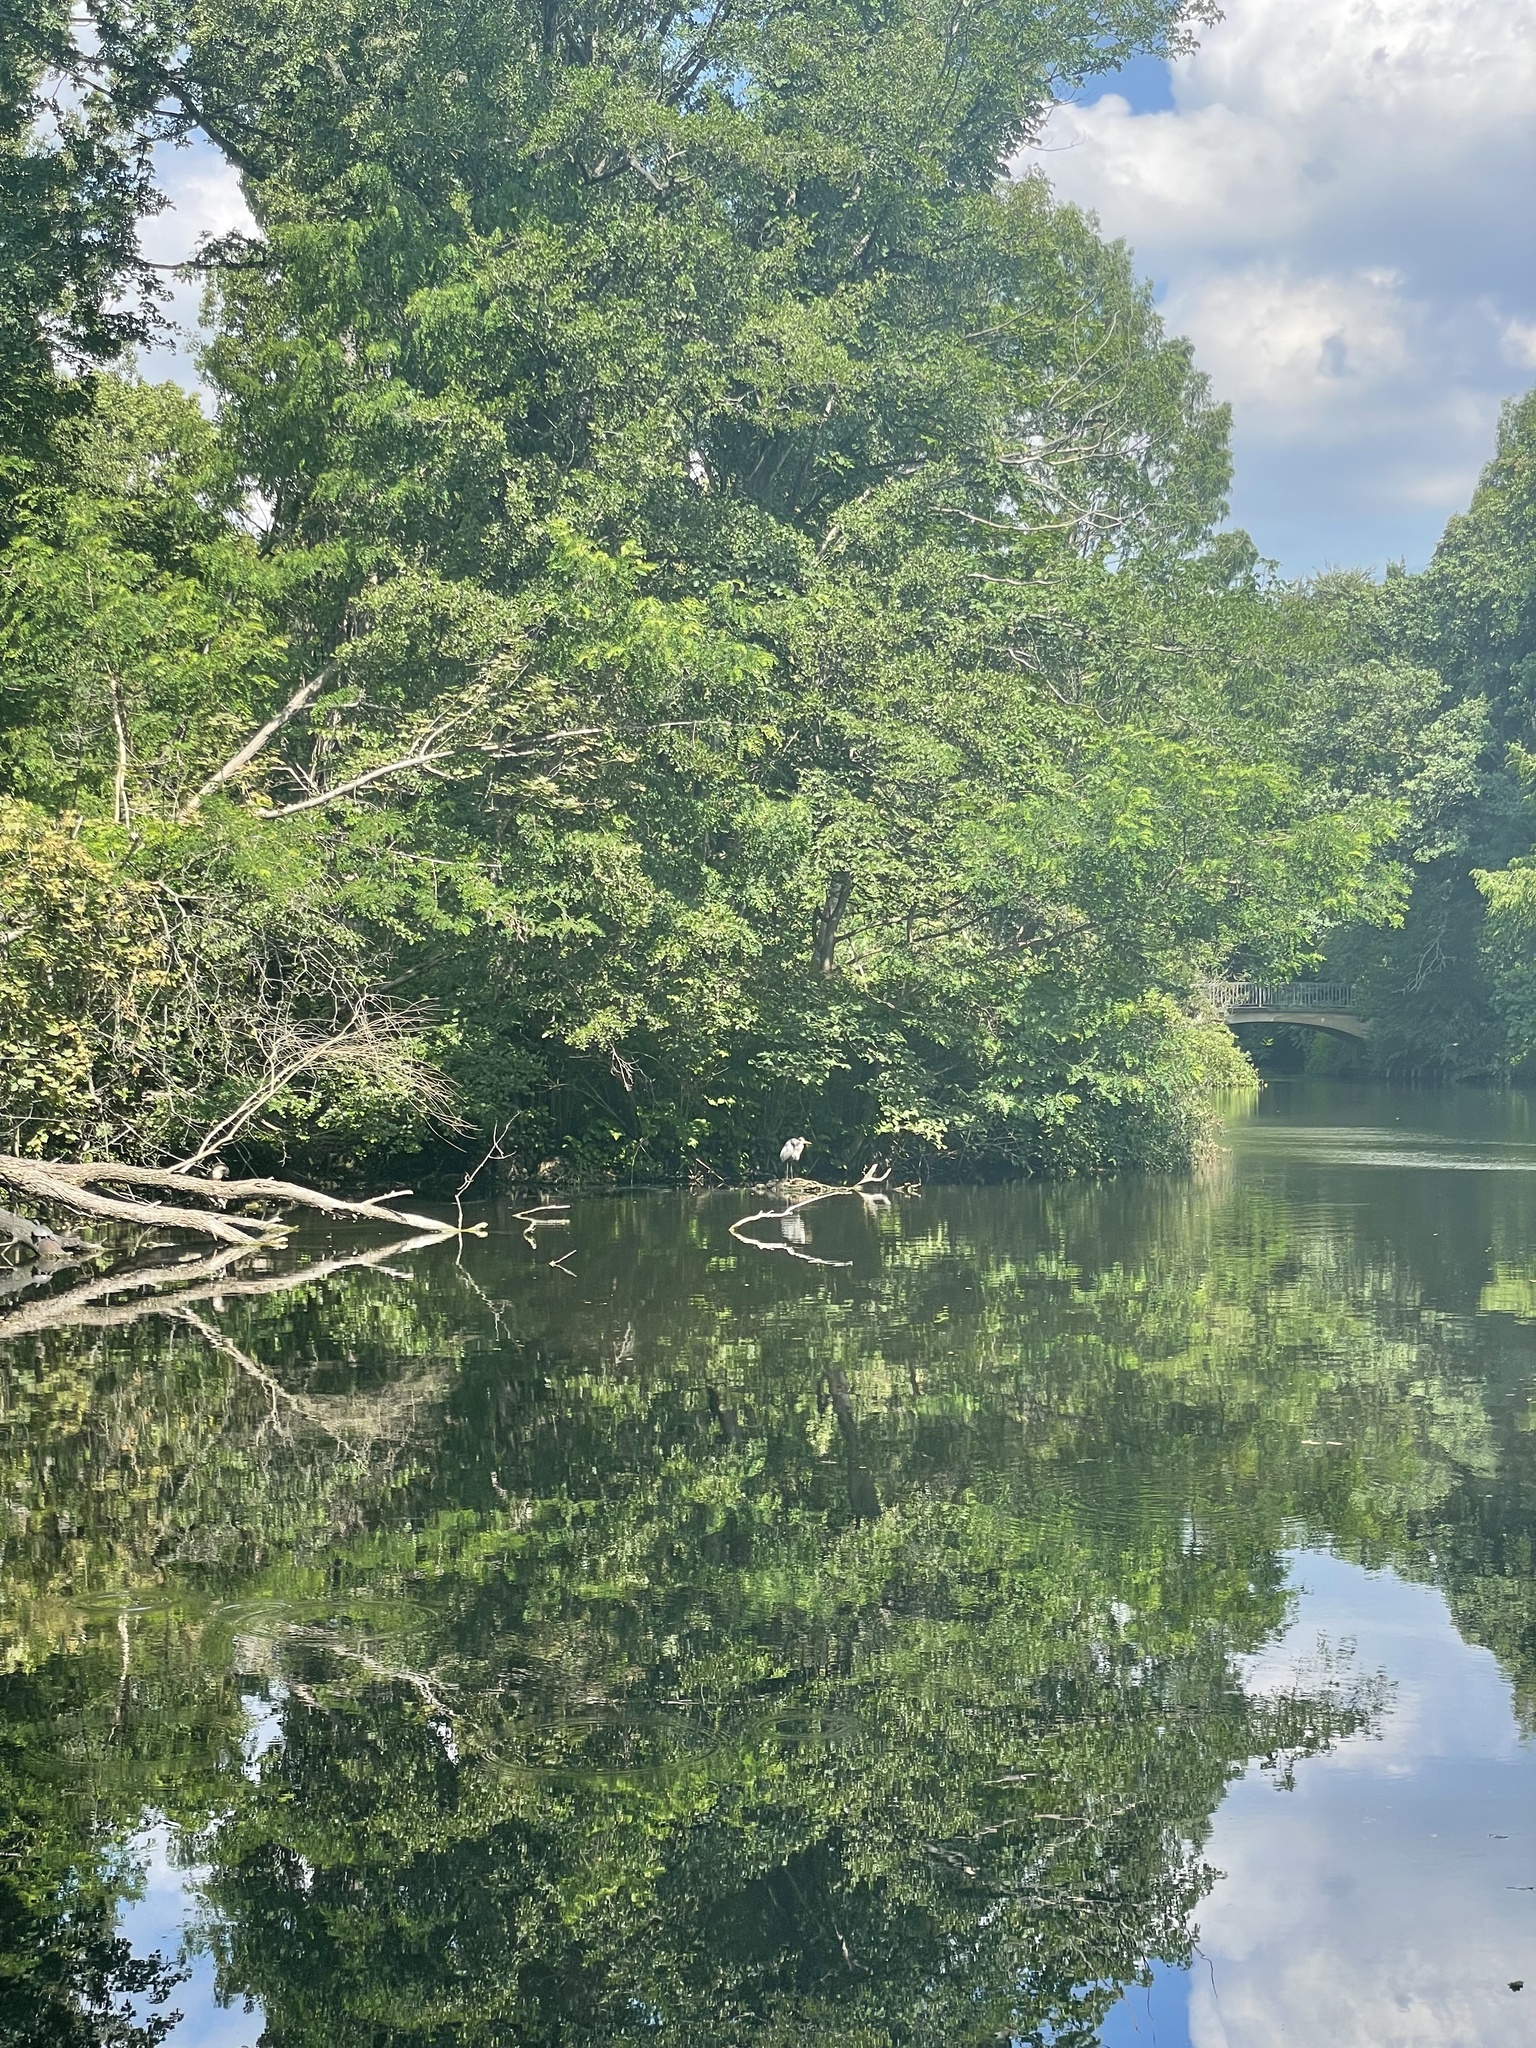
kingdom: Animalia
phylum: Chordata
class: Aves
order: Pelecaniformes
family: Ardeidae
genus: Ardea
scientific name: Ardea cinerea
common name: Grey heron
